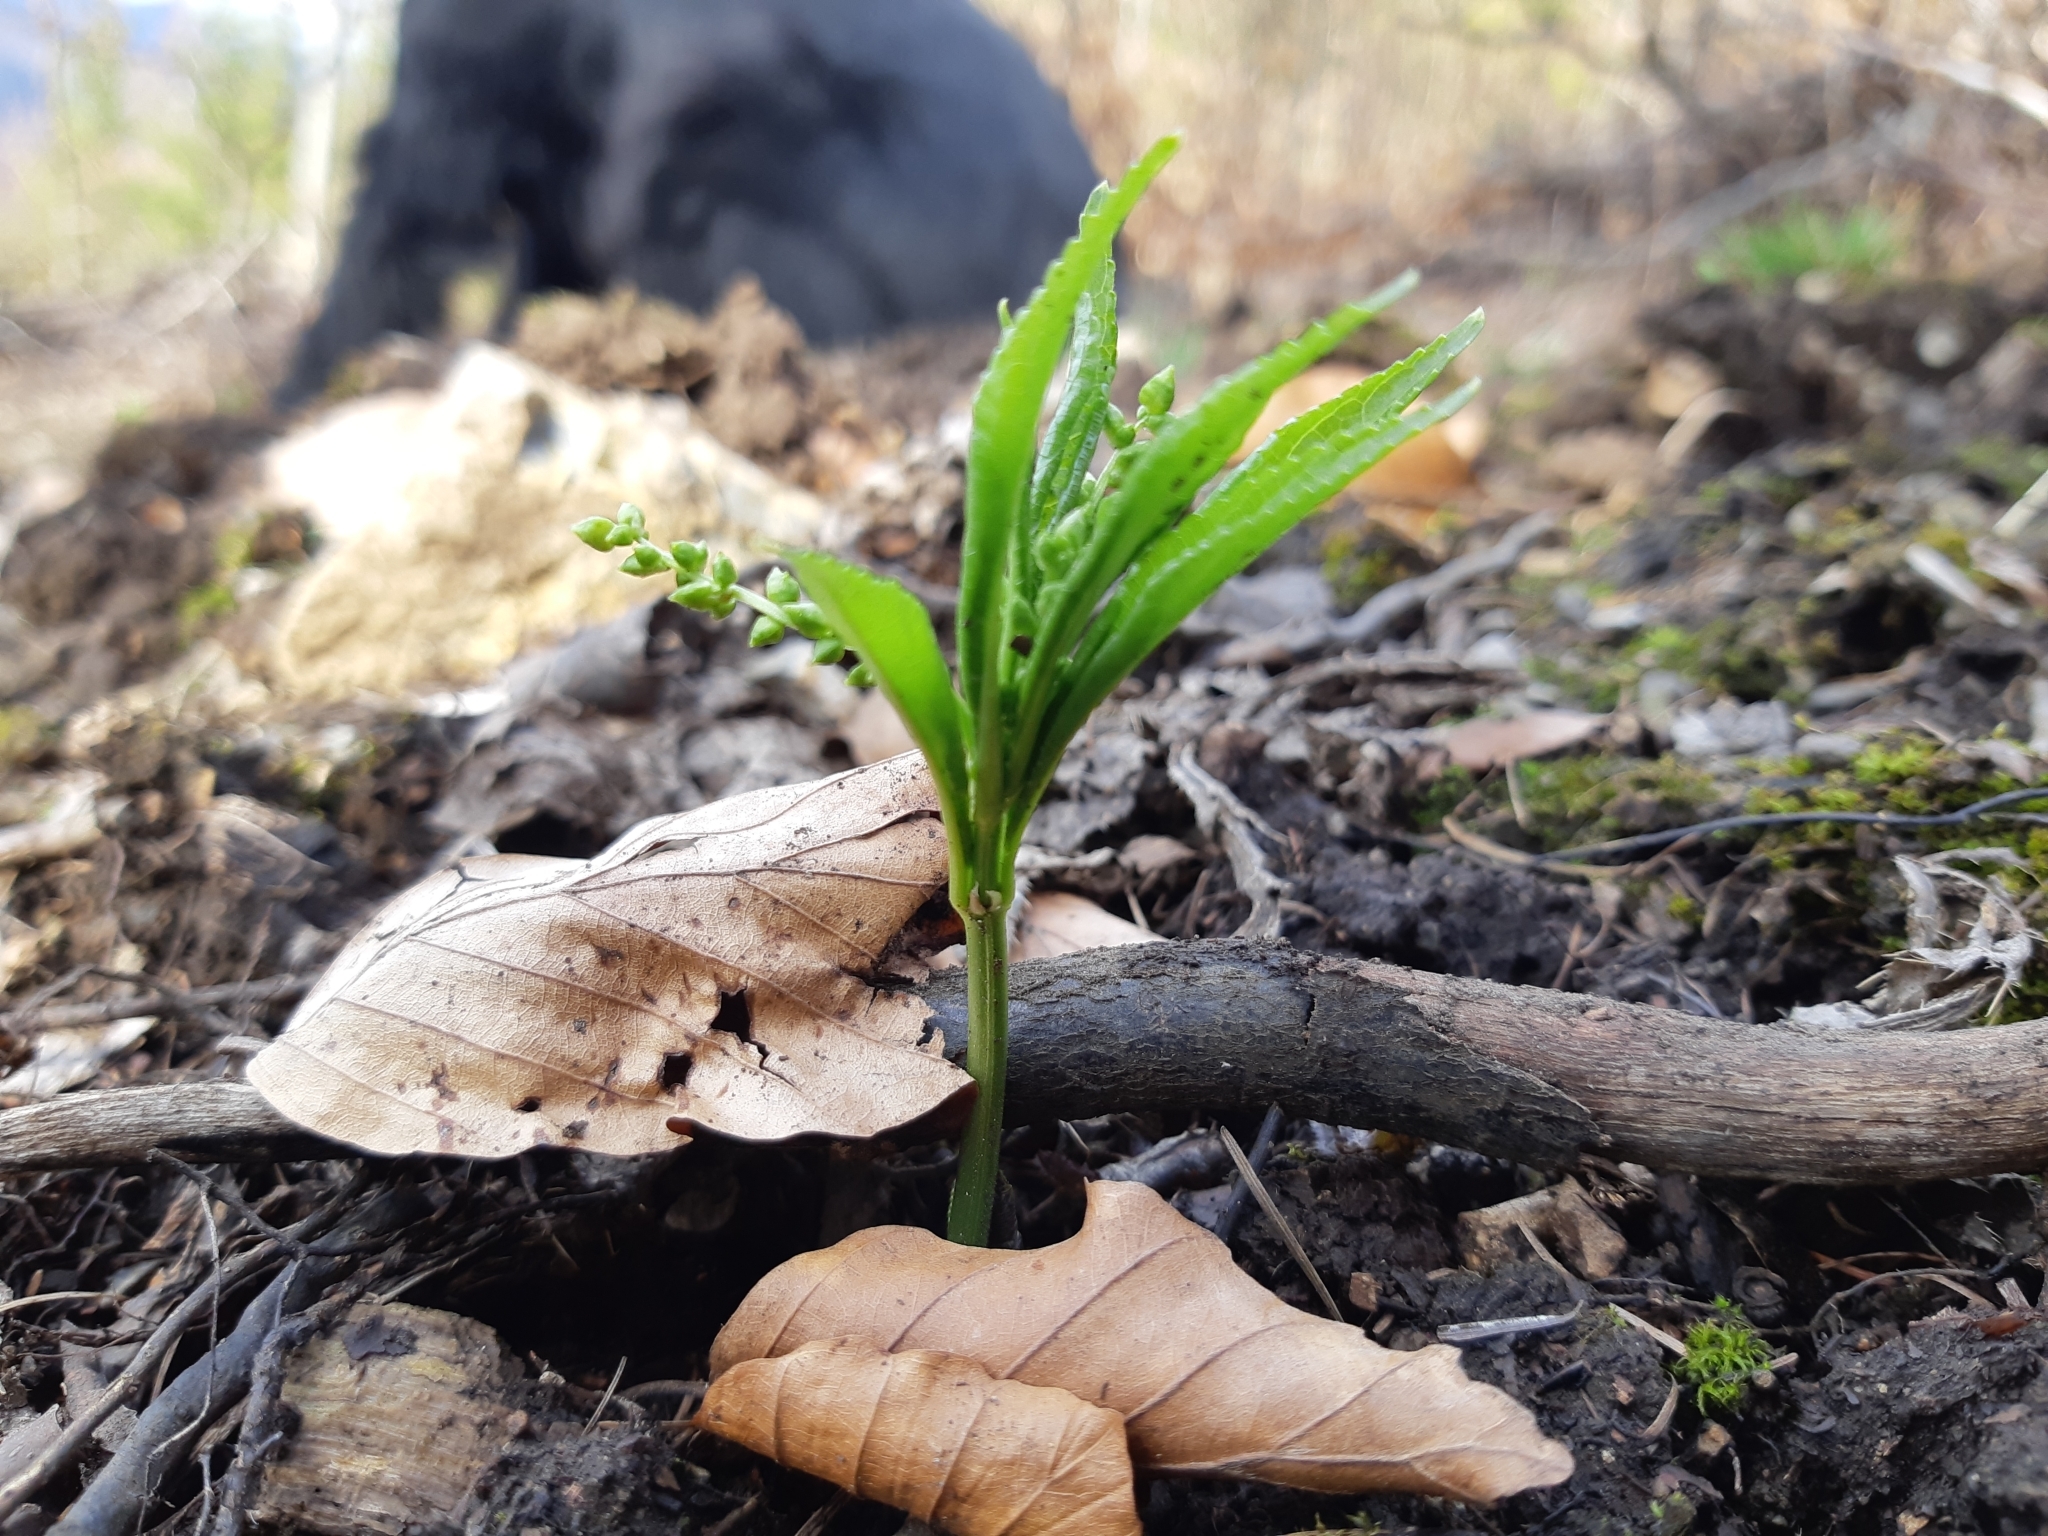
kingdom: Plantae
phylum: Tracheophyta
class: Magnoliopsida
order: Malpighiales
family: Euphorbiaceae
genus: Mercurialis
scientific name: Mercurialis perennis
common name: Dog mercury
